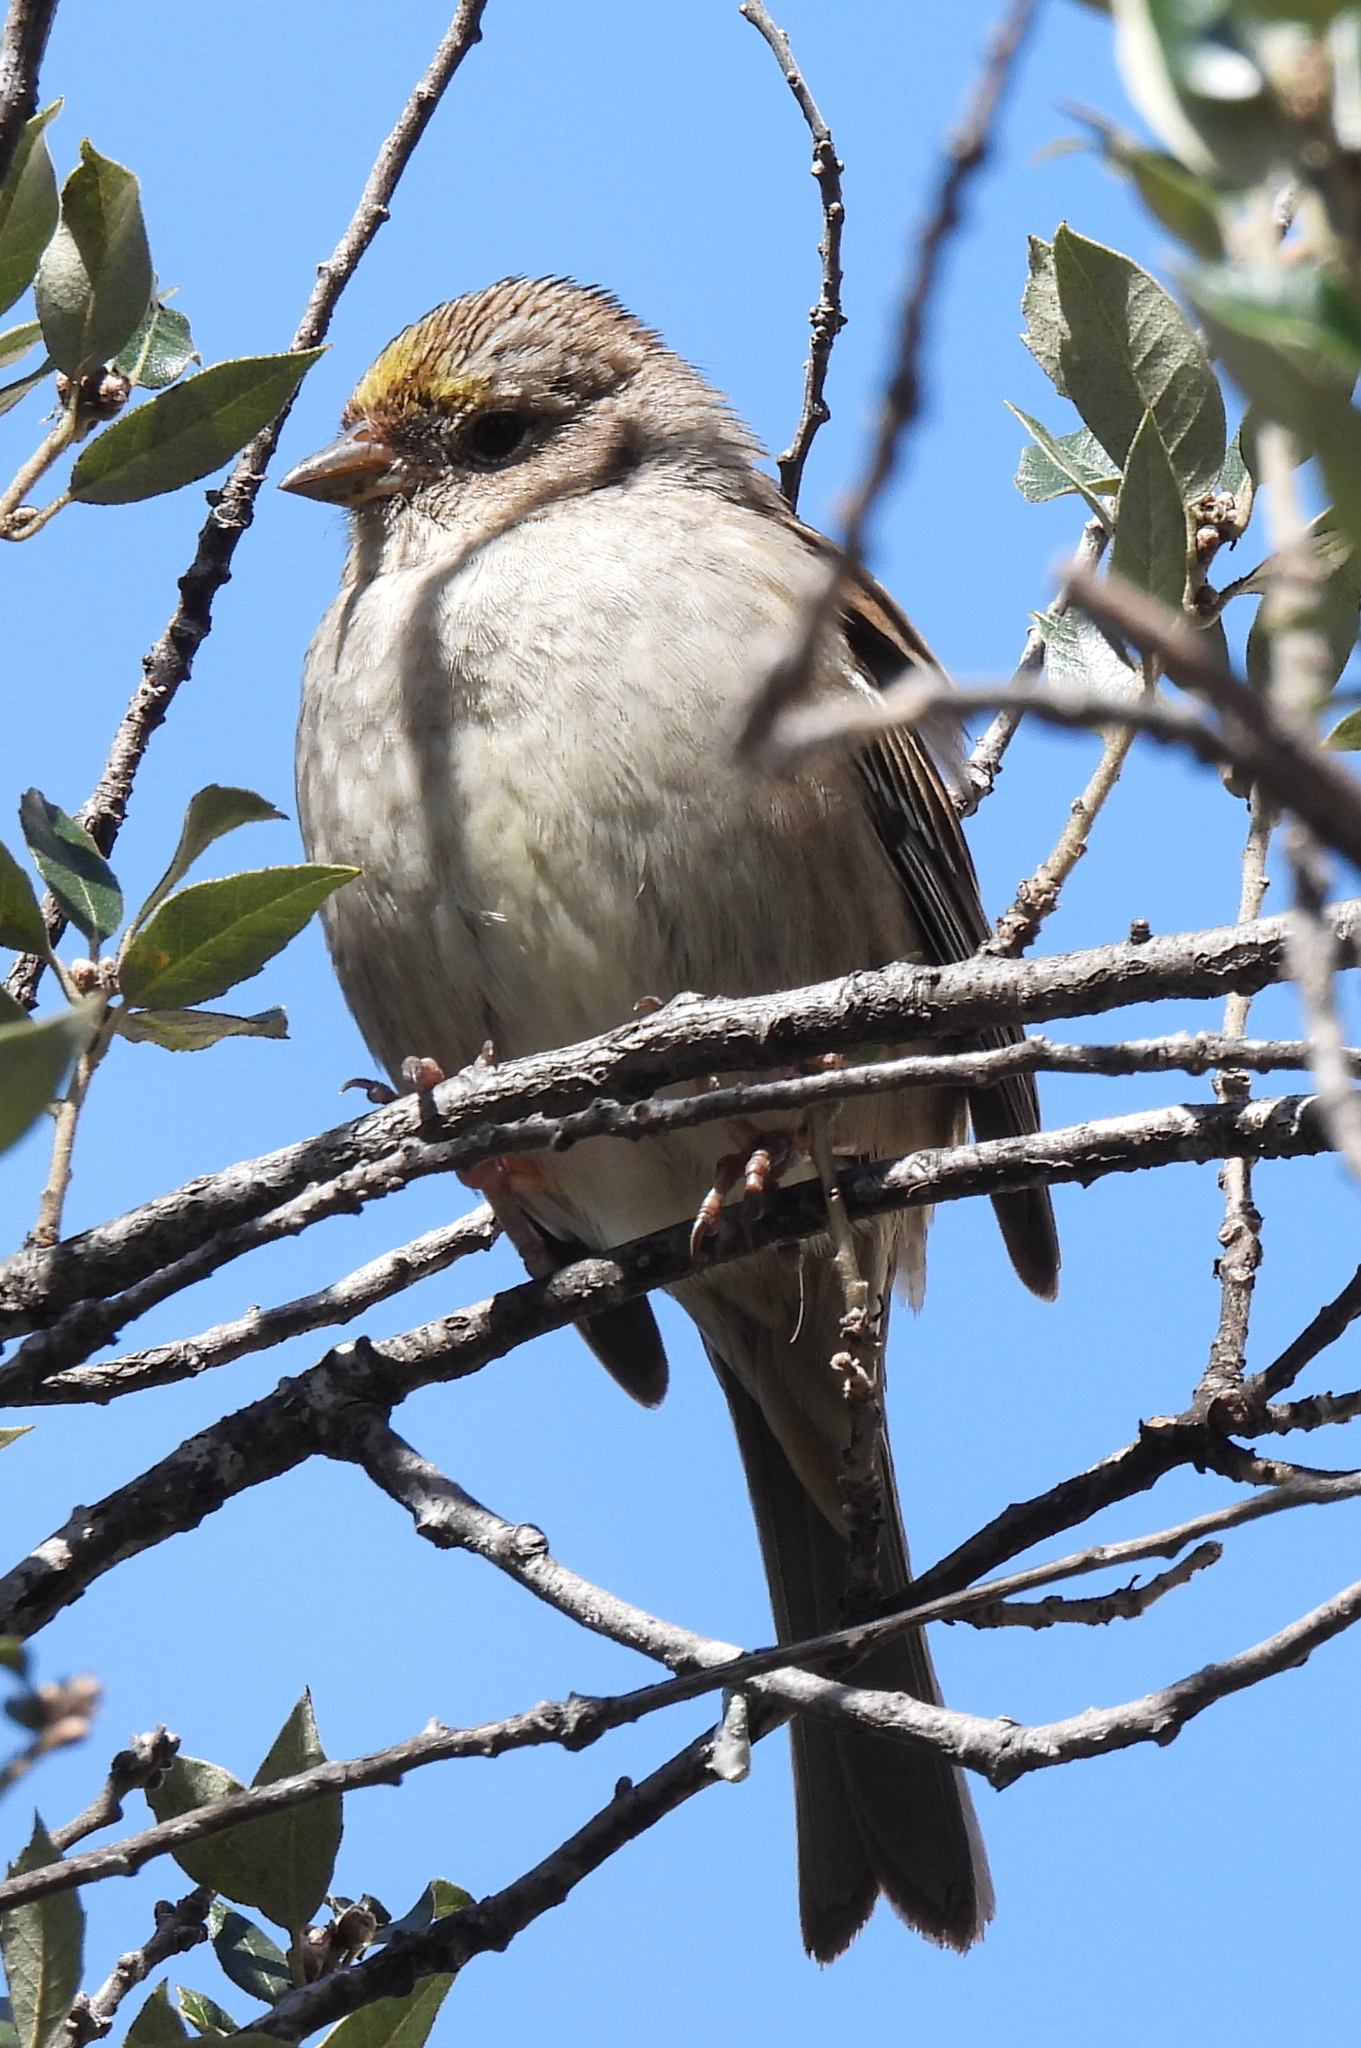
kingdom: Animalia
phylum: Chordata
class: Aves
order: Passeriformes
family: Passerellidae
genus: Zonotrichia
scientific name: Zonotrichia atricapilla
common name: Golden-crowned sparrow
